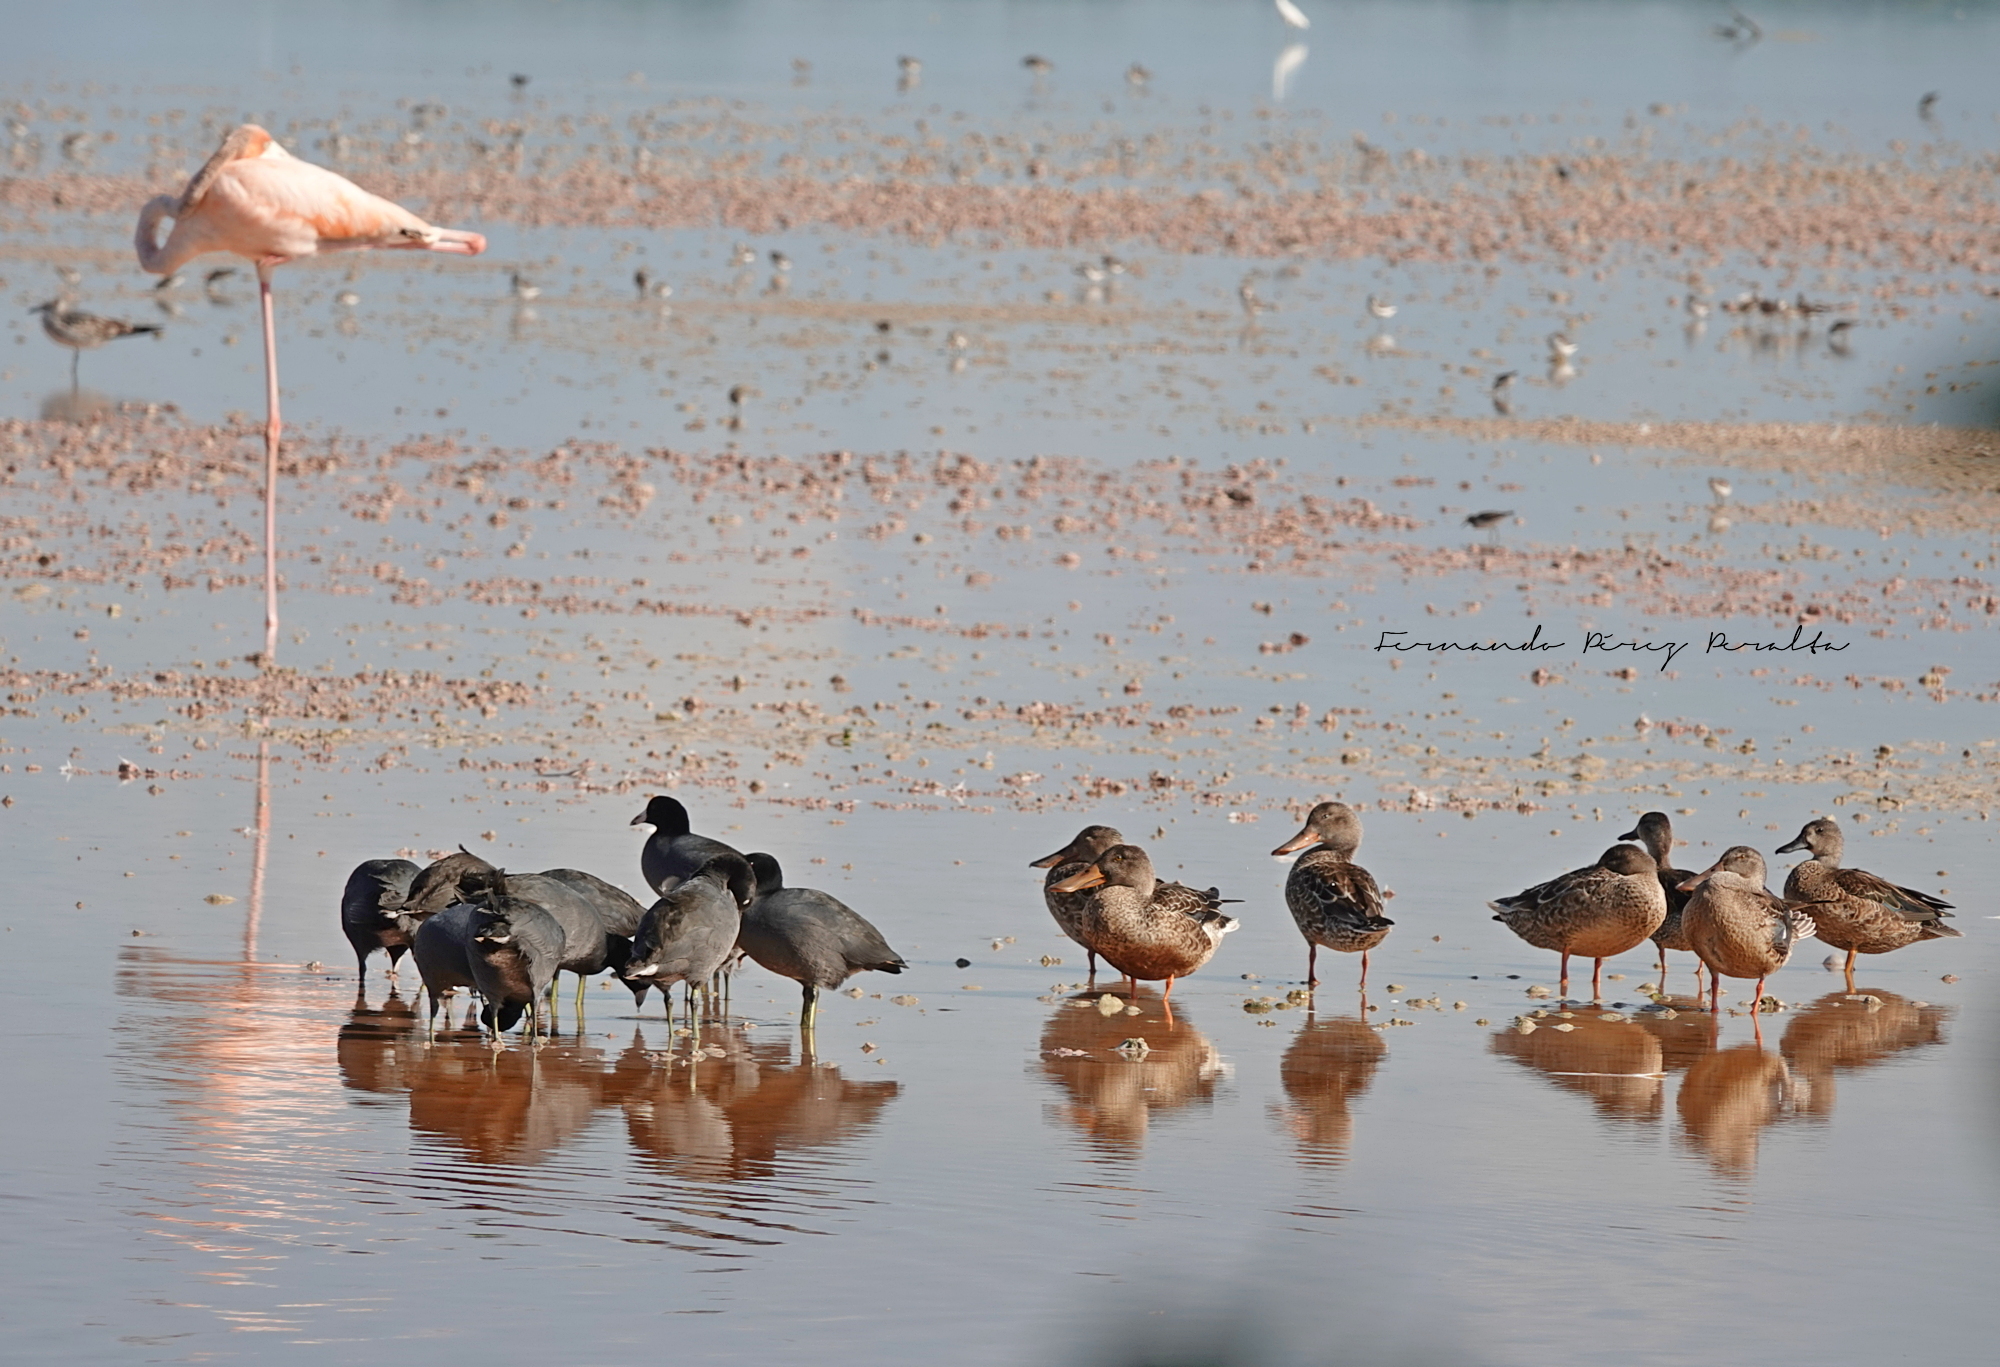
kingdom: Animalia
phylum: Chordata
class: Aves
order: Gruiformes
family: Rallidae
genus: Fulica
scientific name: Fulica americana
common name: American coot
